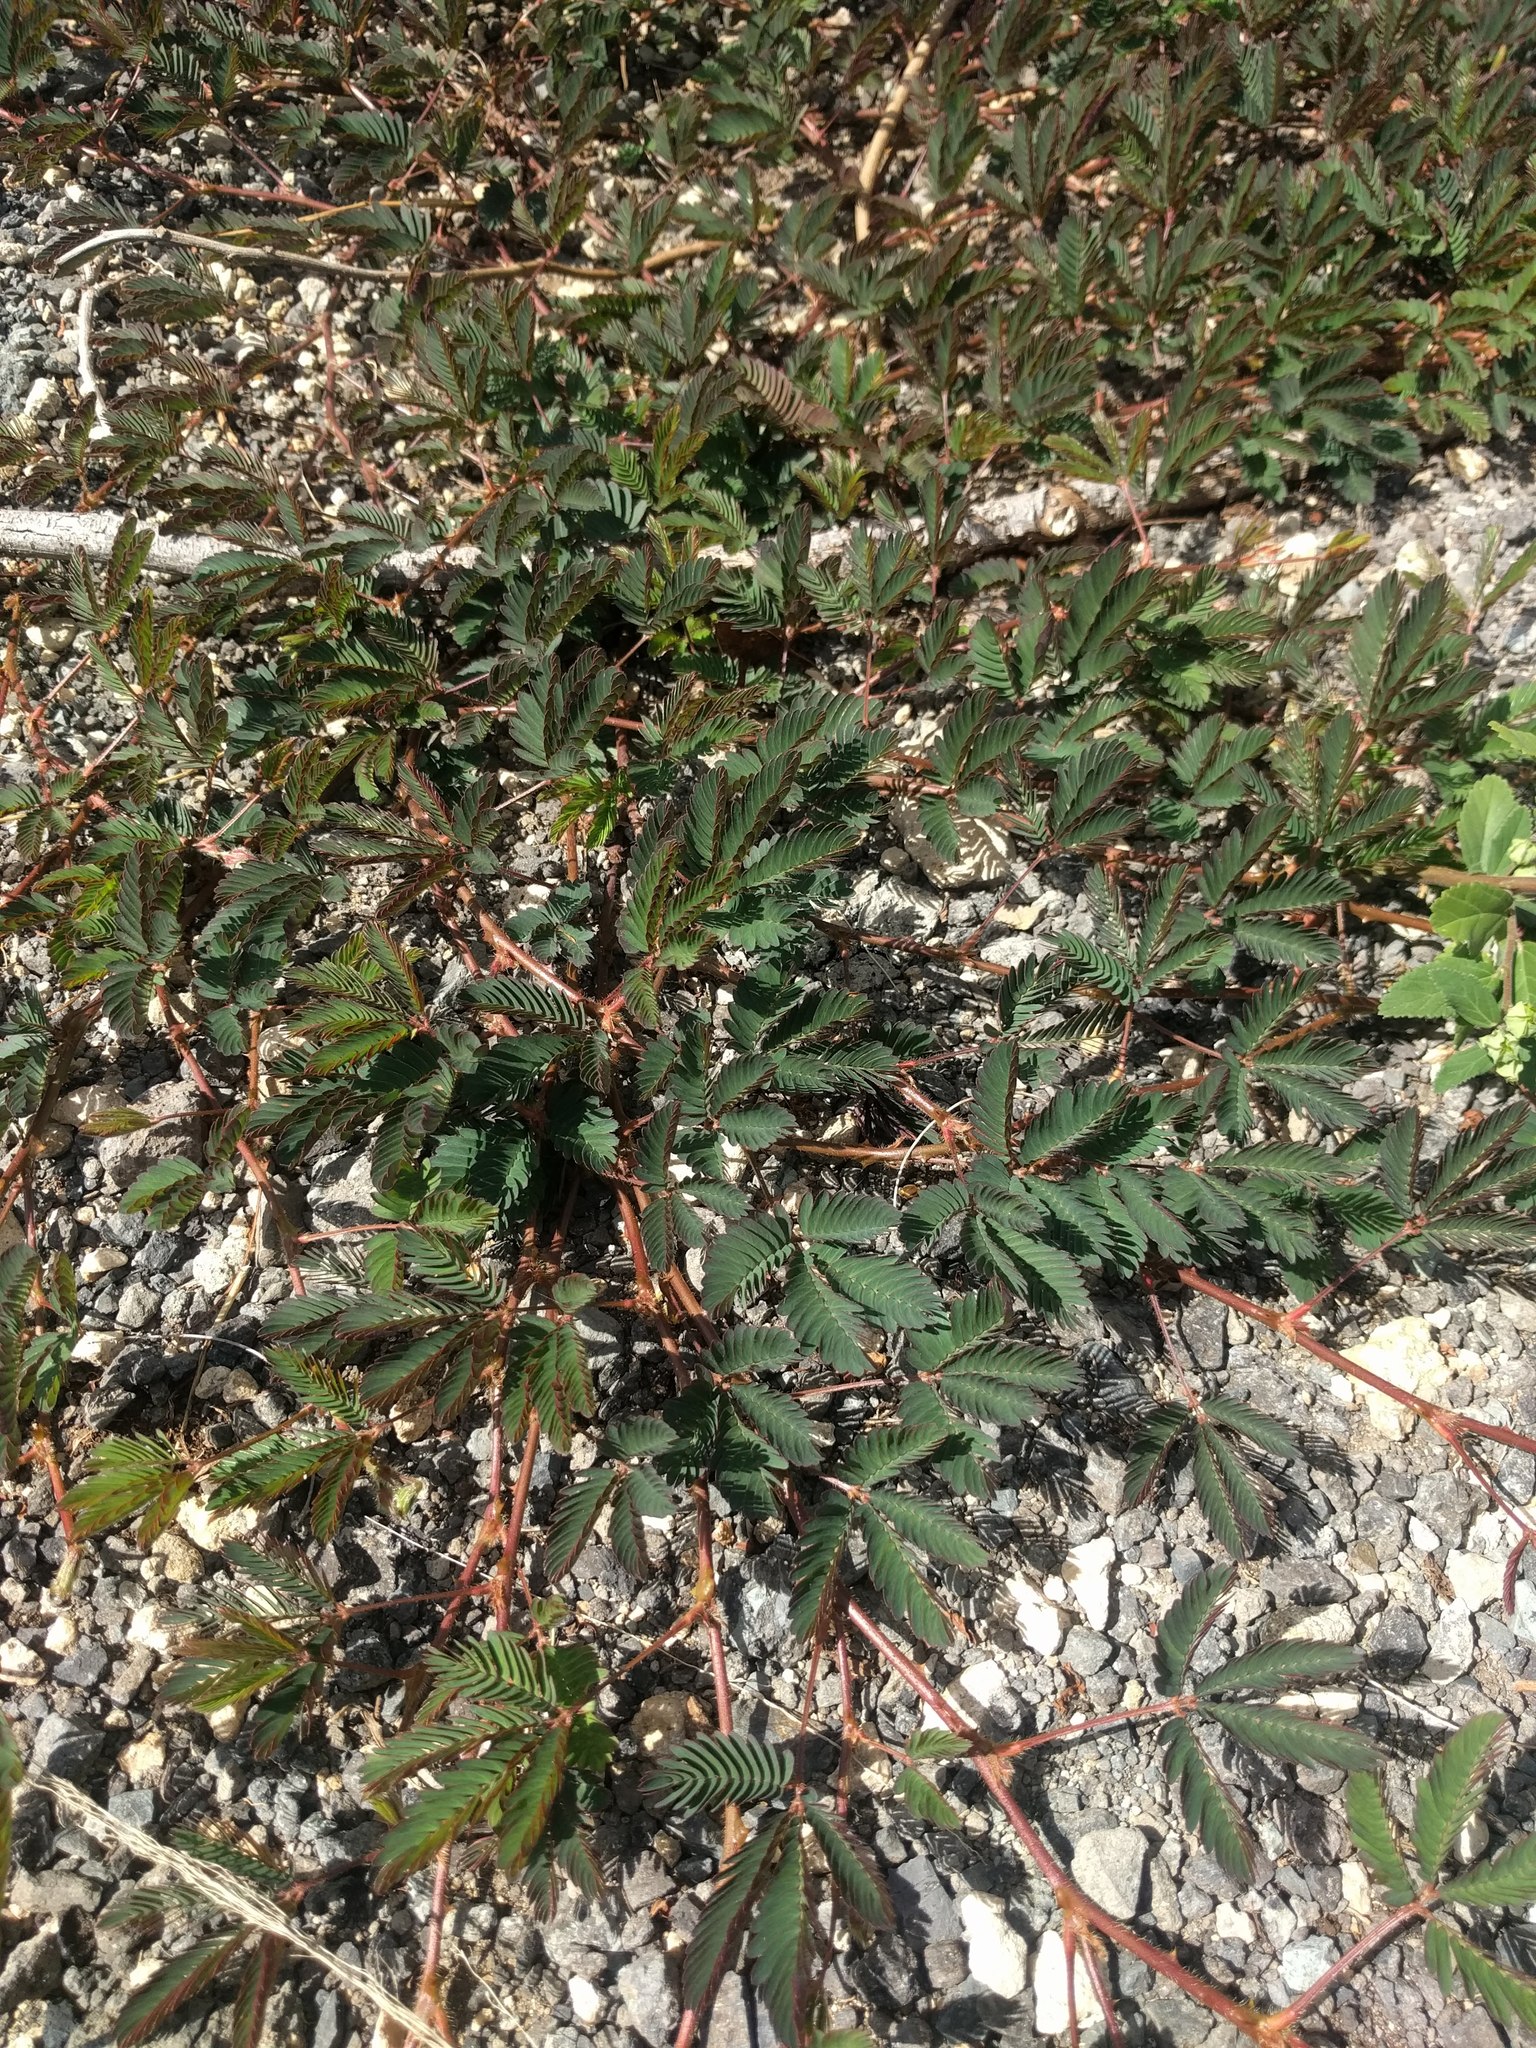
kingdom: Plantae
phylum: Tracheophyta
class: Magnoliopsida
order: Fabales
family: Fabaceae
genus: Mimosa
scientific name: Mimosa pudica
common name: Sensitive plant
